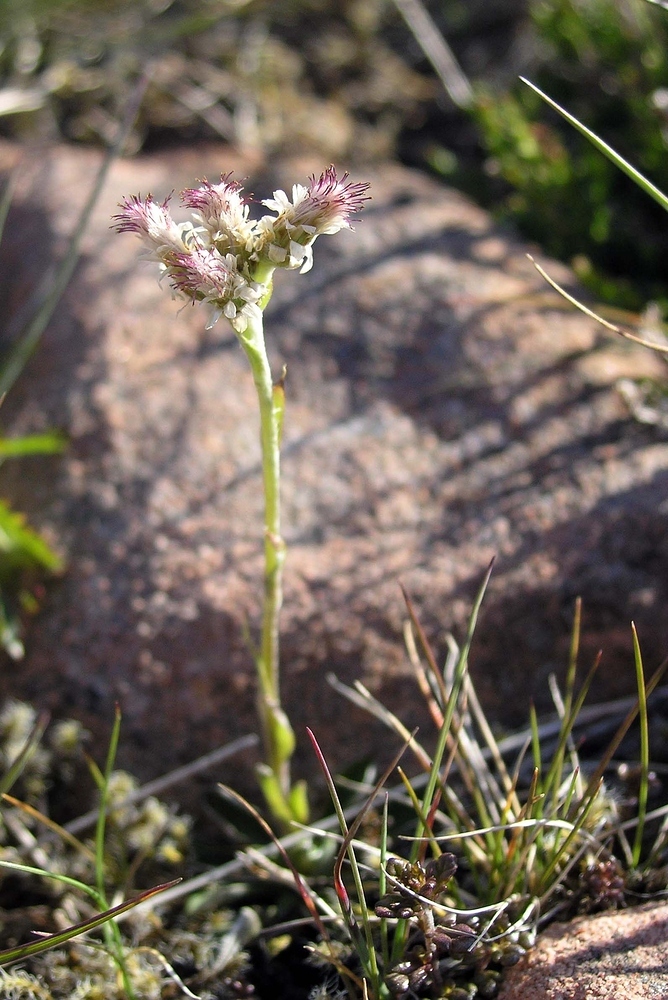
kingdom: Plantae
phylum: Tracheophyta
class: Magnoliopsida
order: Asterales
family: Asteraceae
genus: Antennaria
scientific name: Antennaria dioica
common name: Mountain everlasting
